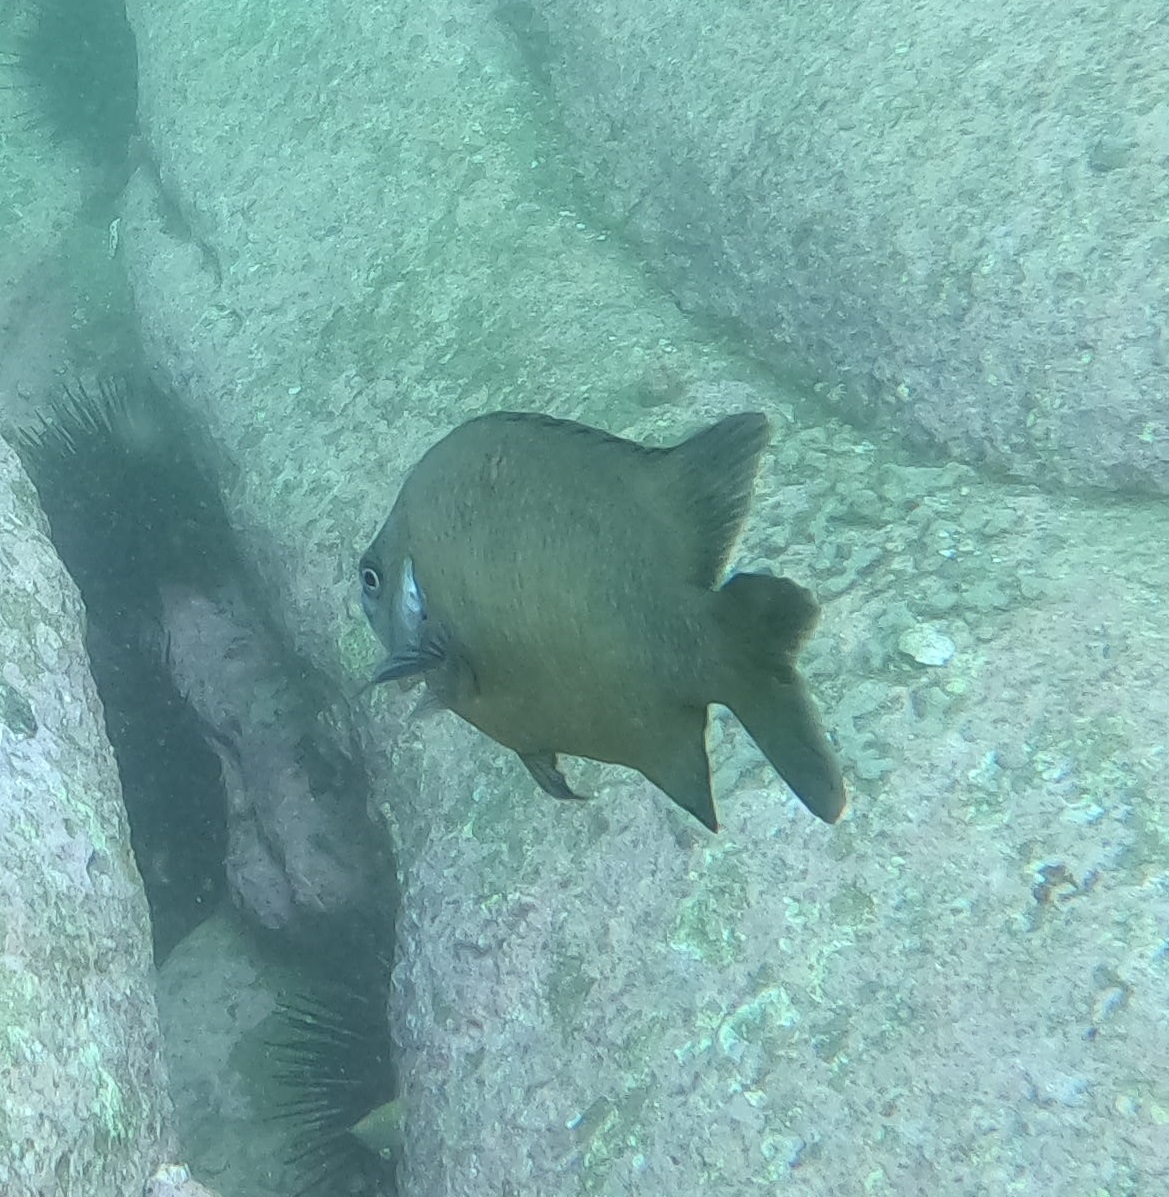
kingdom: Animalia
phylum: Chordata
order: Perciformes
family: Pomacentridae
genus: Parma
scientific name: Parma microlepis
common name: White-ear
